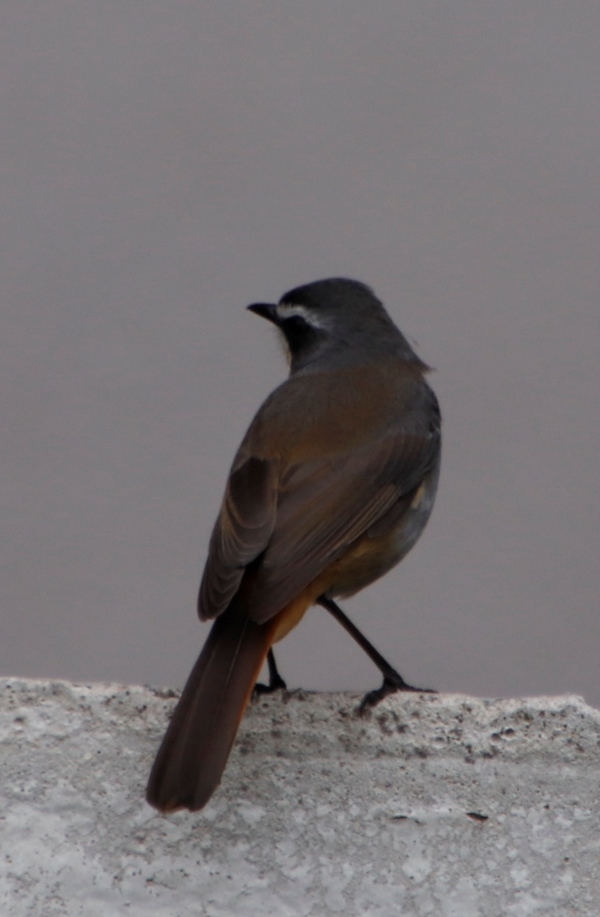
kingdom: Animalia
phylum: Chordata
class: Aves
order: Passeriformes
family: Muscicapidae
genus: Cossypha
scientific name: Cossypha caffra
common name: Cape robin-chat
